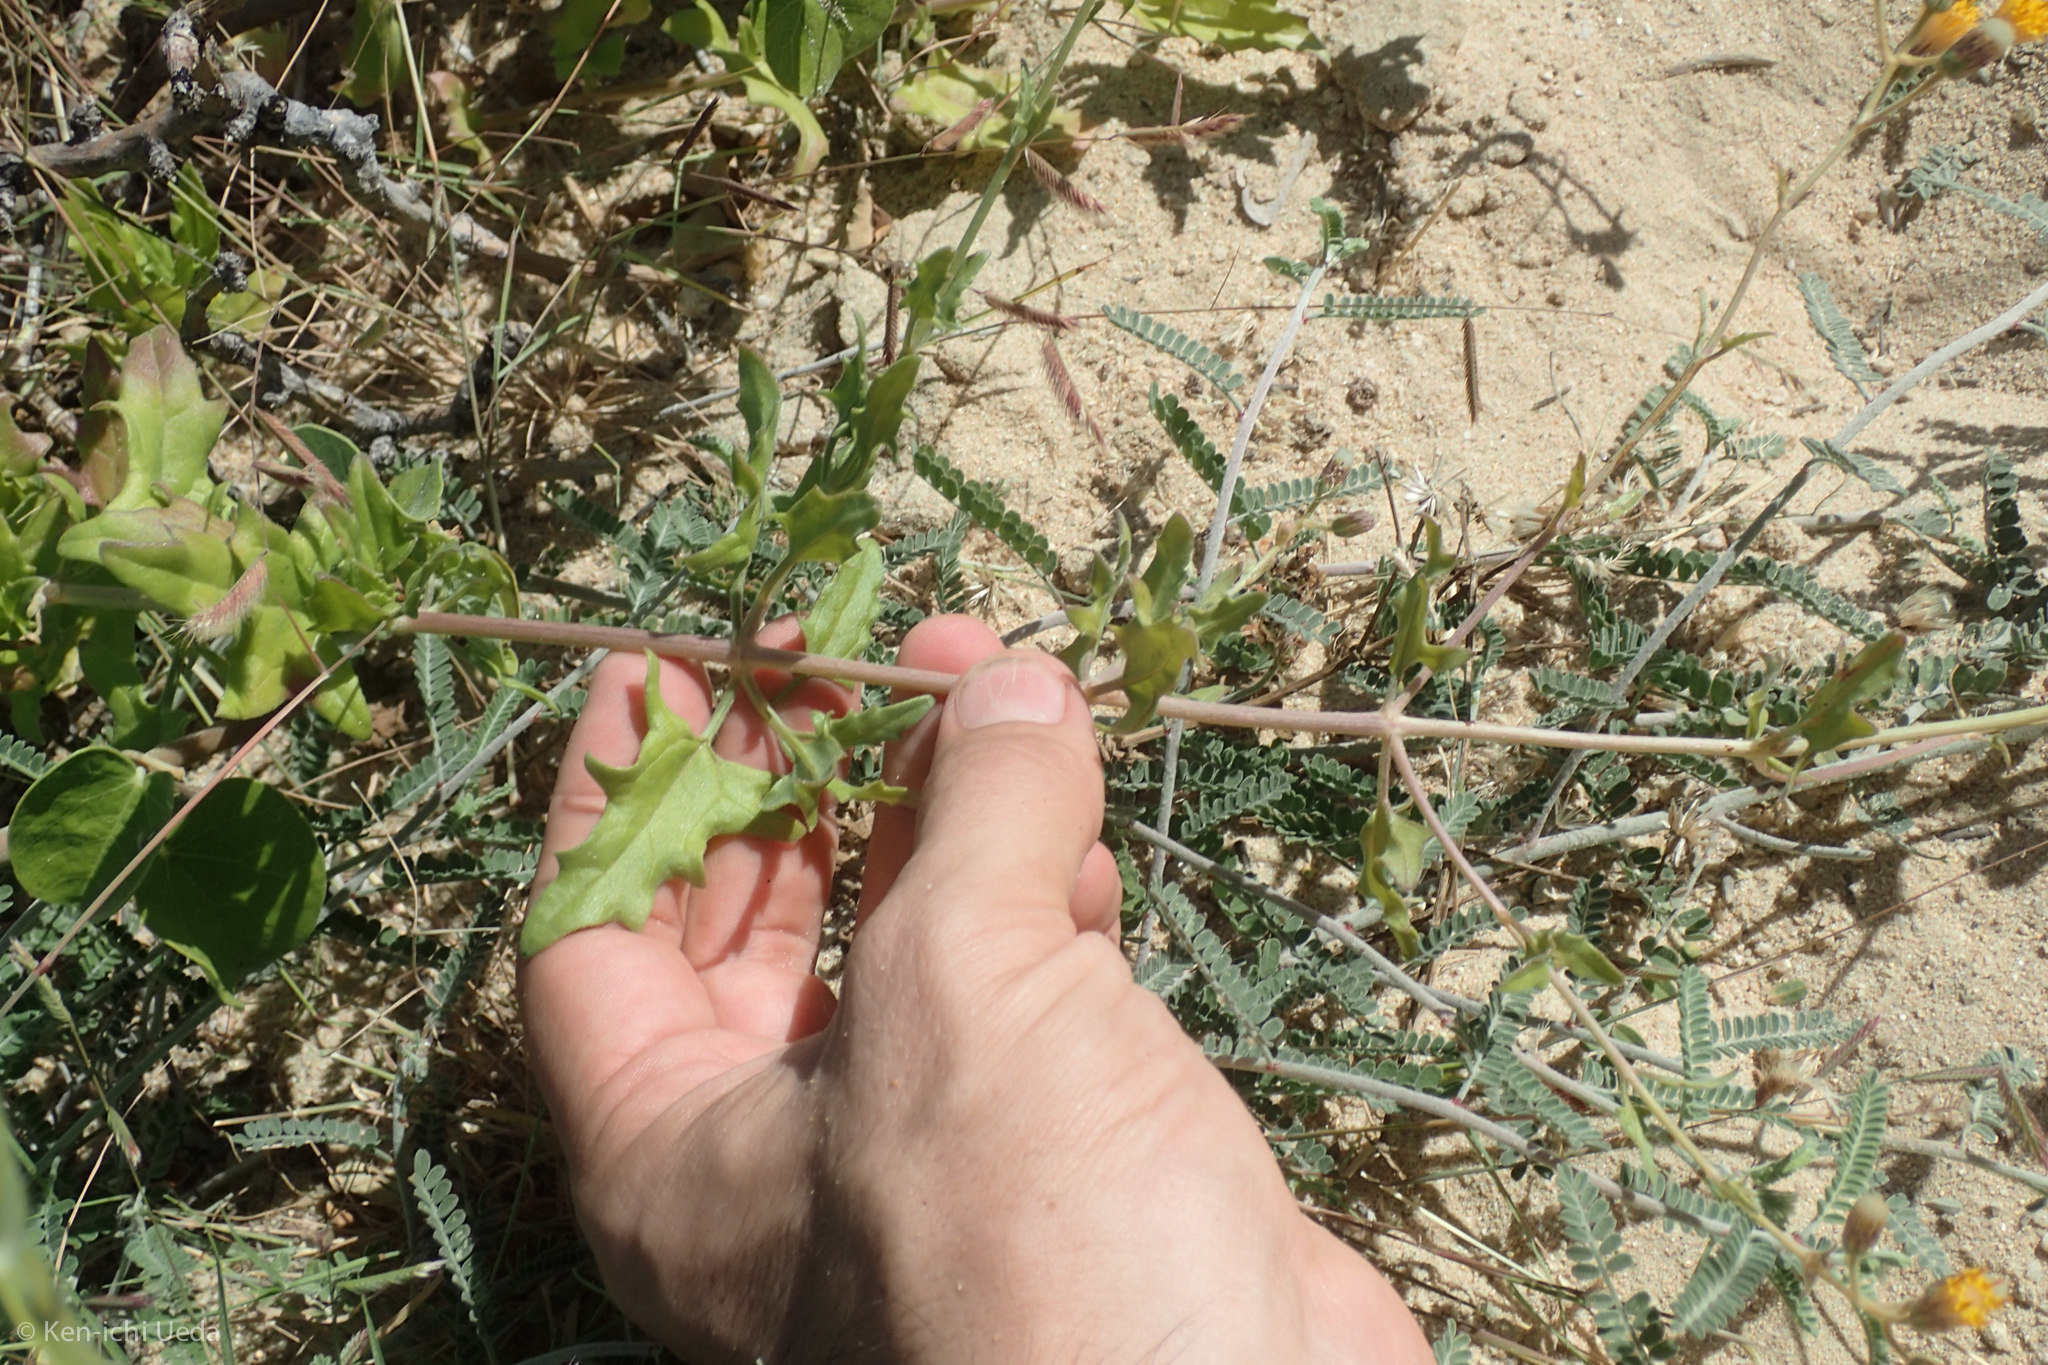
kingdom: Plantae
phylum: Tracheophyta
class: Magnoliopsida
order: Asterales
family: Asteraceae
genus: Bebbia
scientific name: Bebbia atriplicifolia
